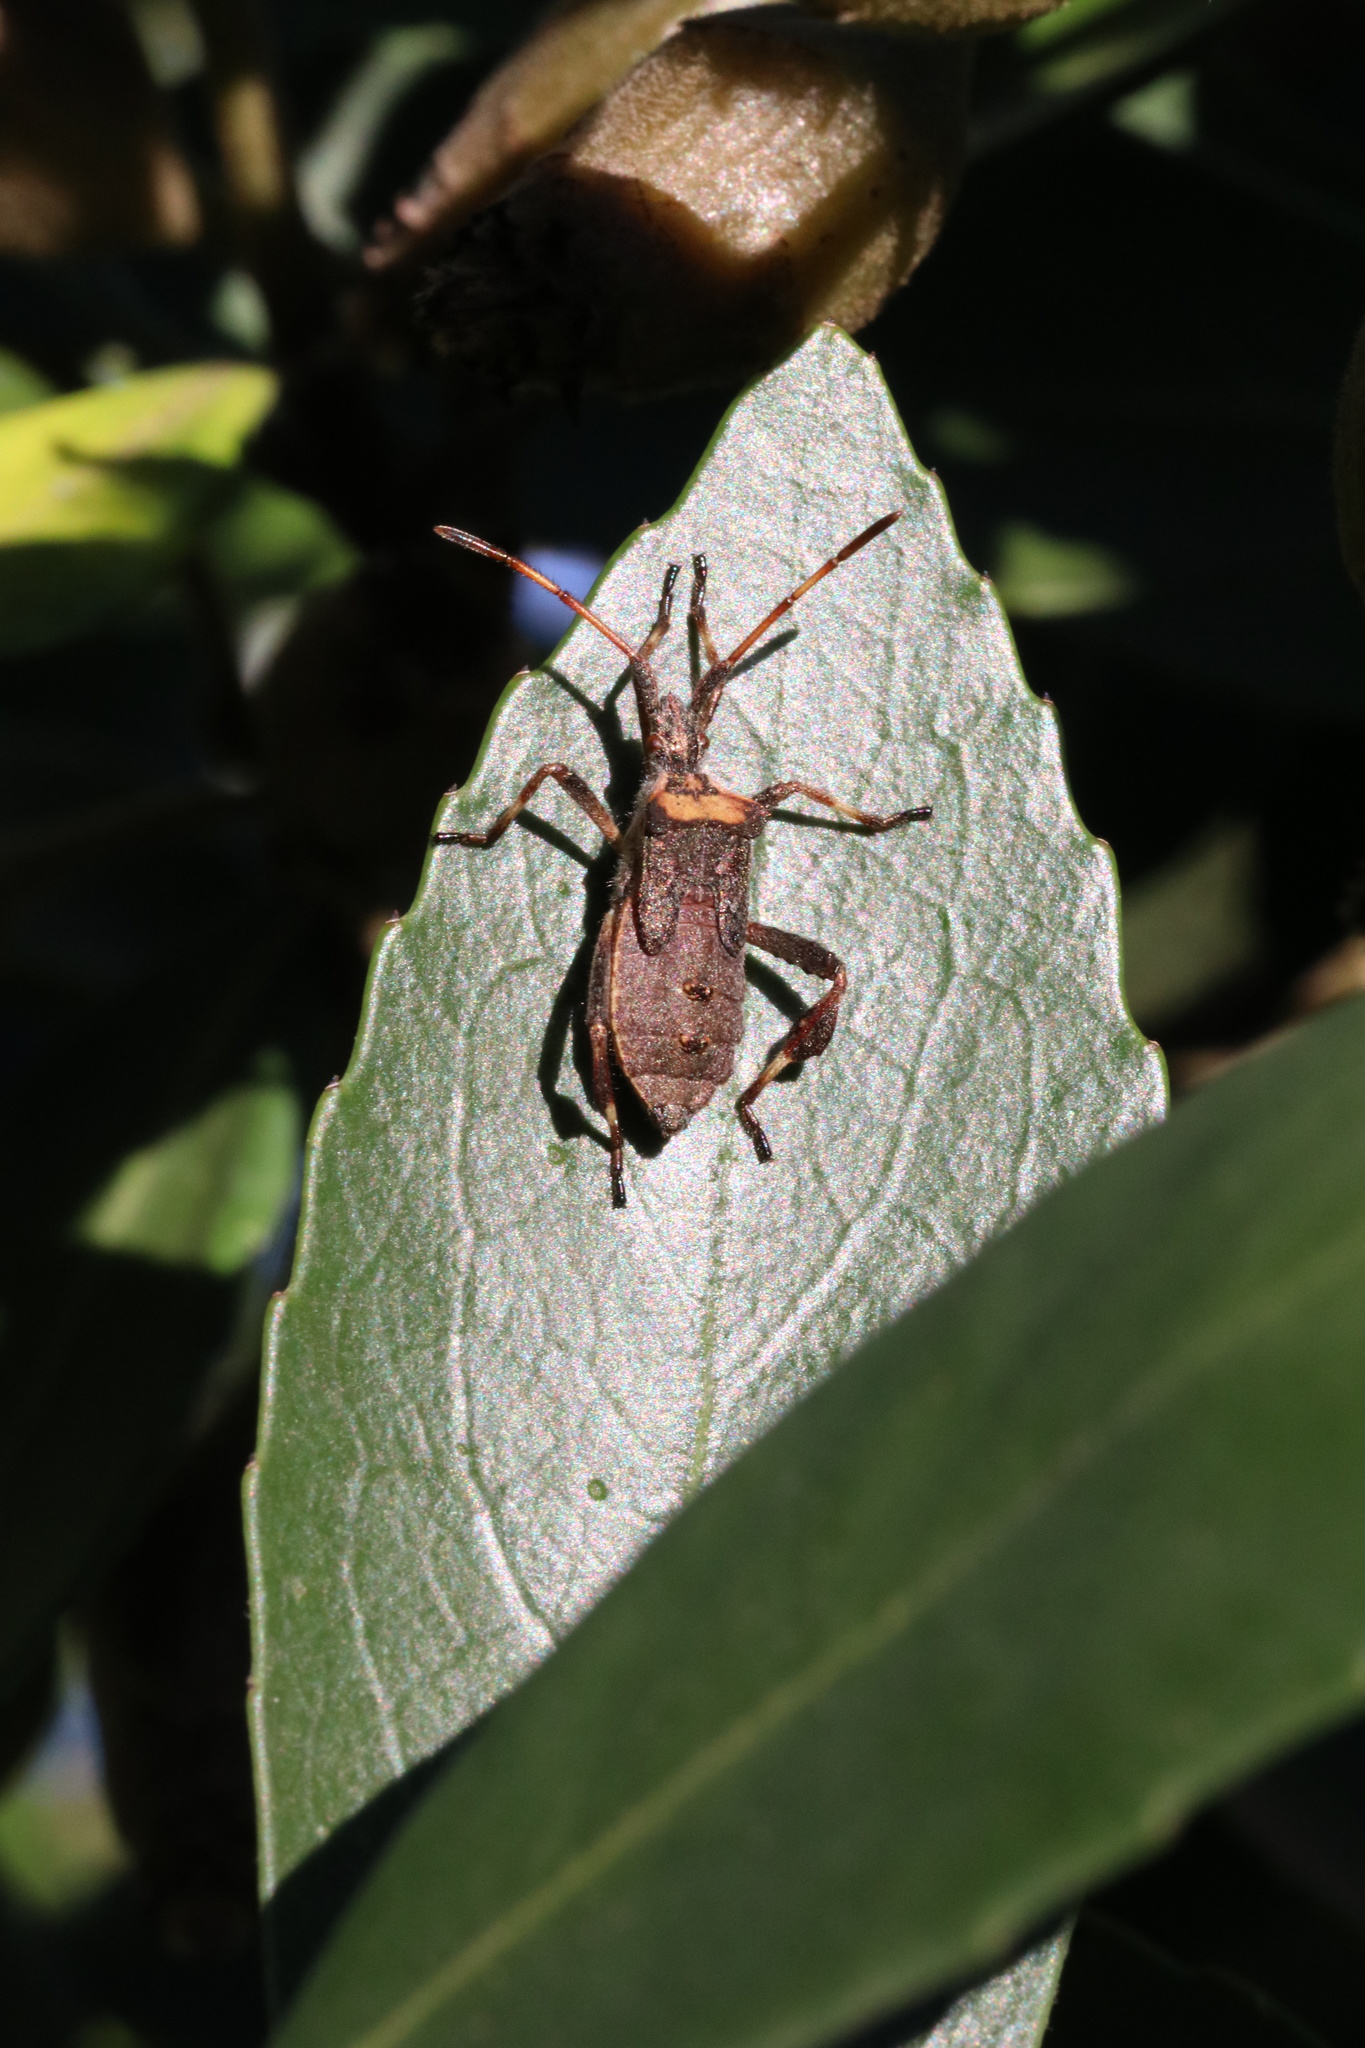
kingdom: Animalia
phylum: Arthropoda
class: Insecta
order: Hemiptera
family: Coreidae
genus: Leptoglossus
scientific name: Leptoglossus chilensis
